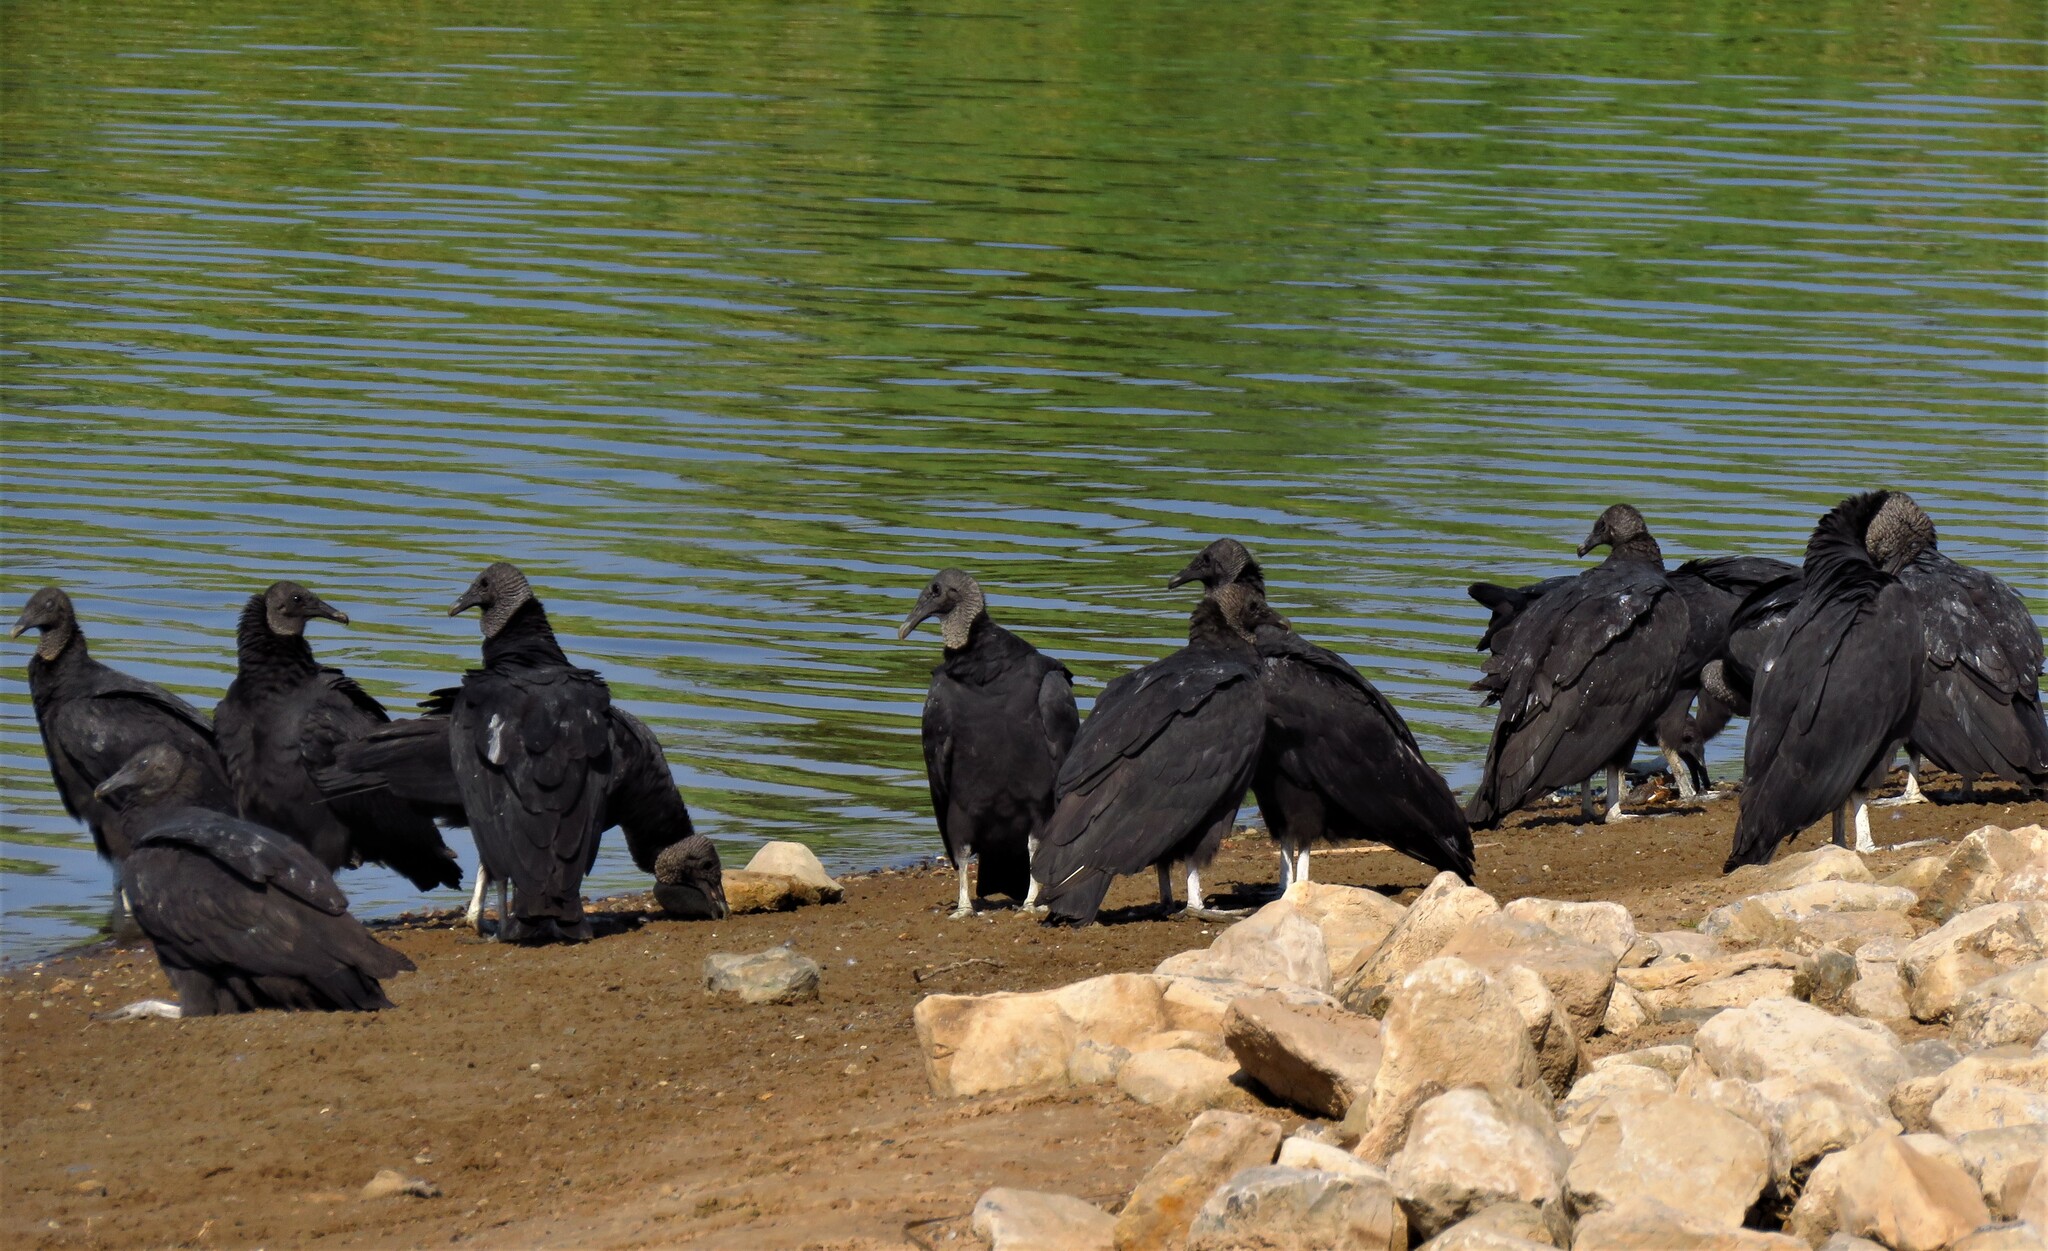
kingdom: Animalia
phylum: Chordata
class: Aves
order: Accipitriformes
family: Cathartidae
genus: Coragyps
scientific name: Coragyps atratus
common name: Black vulture
